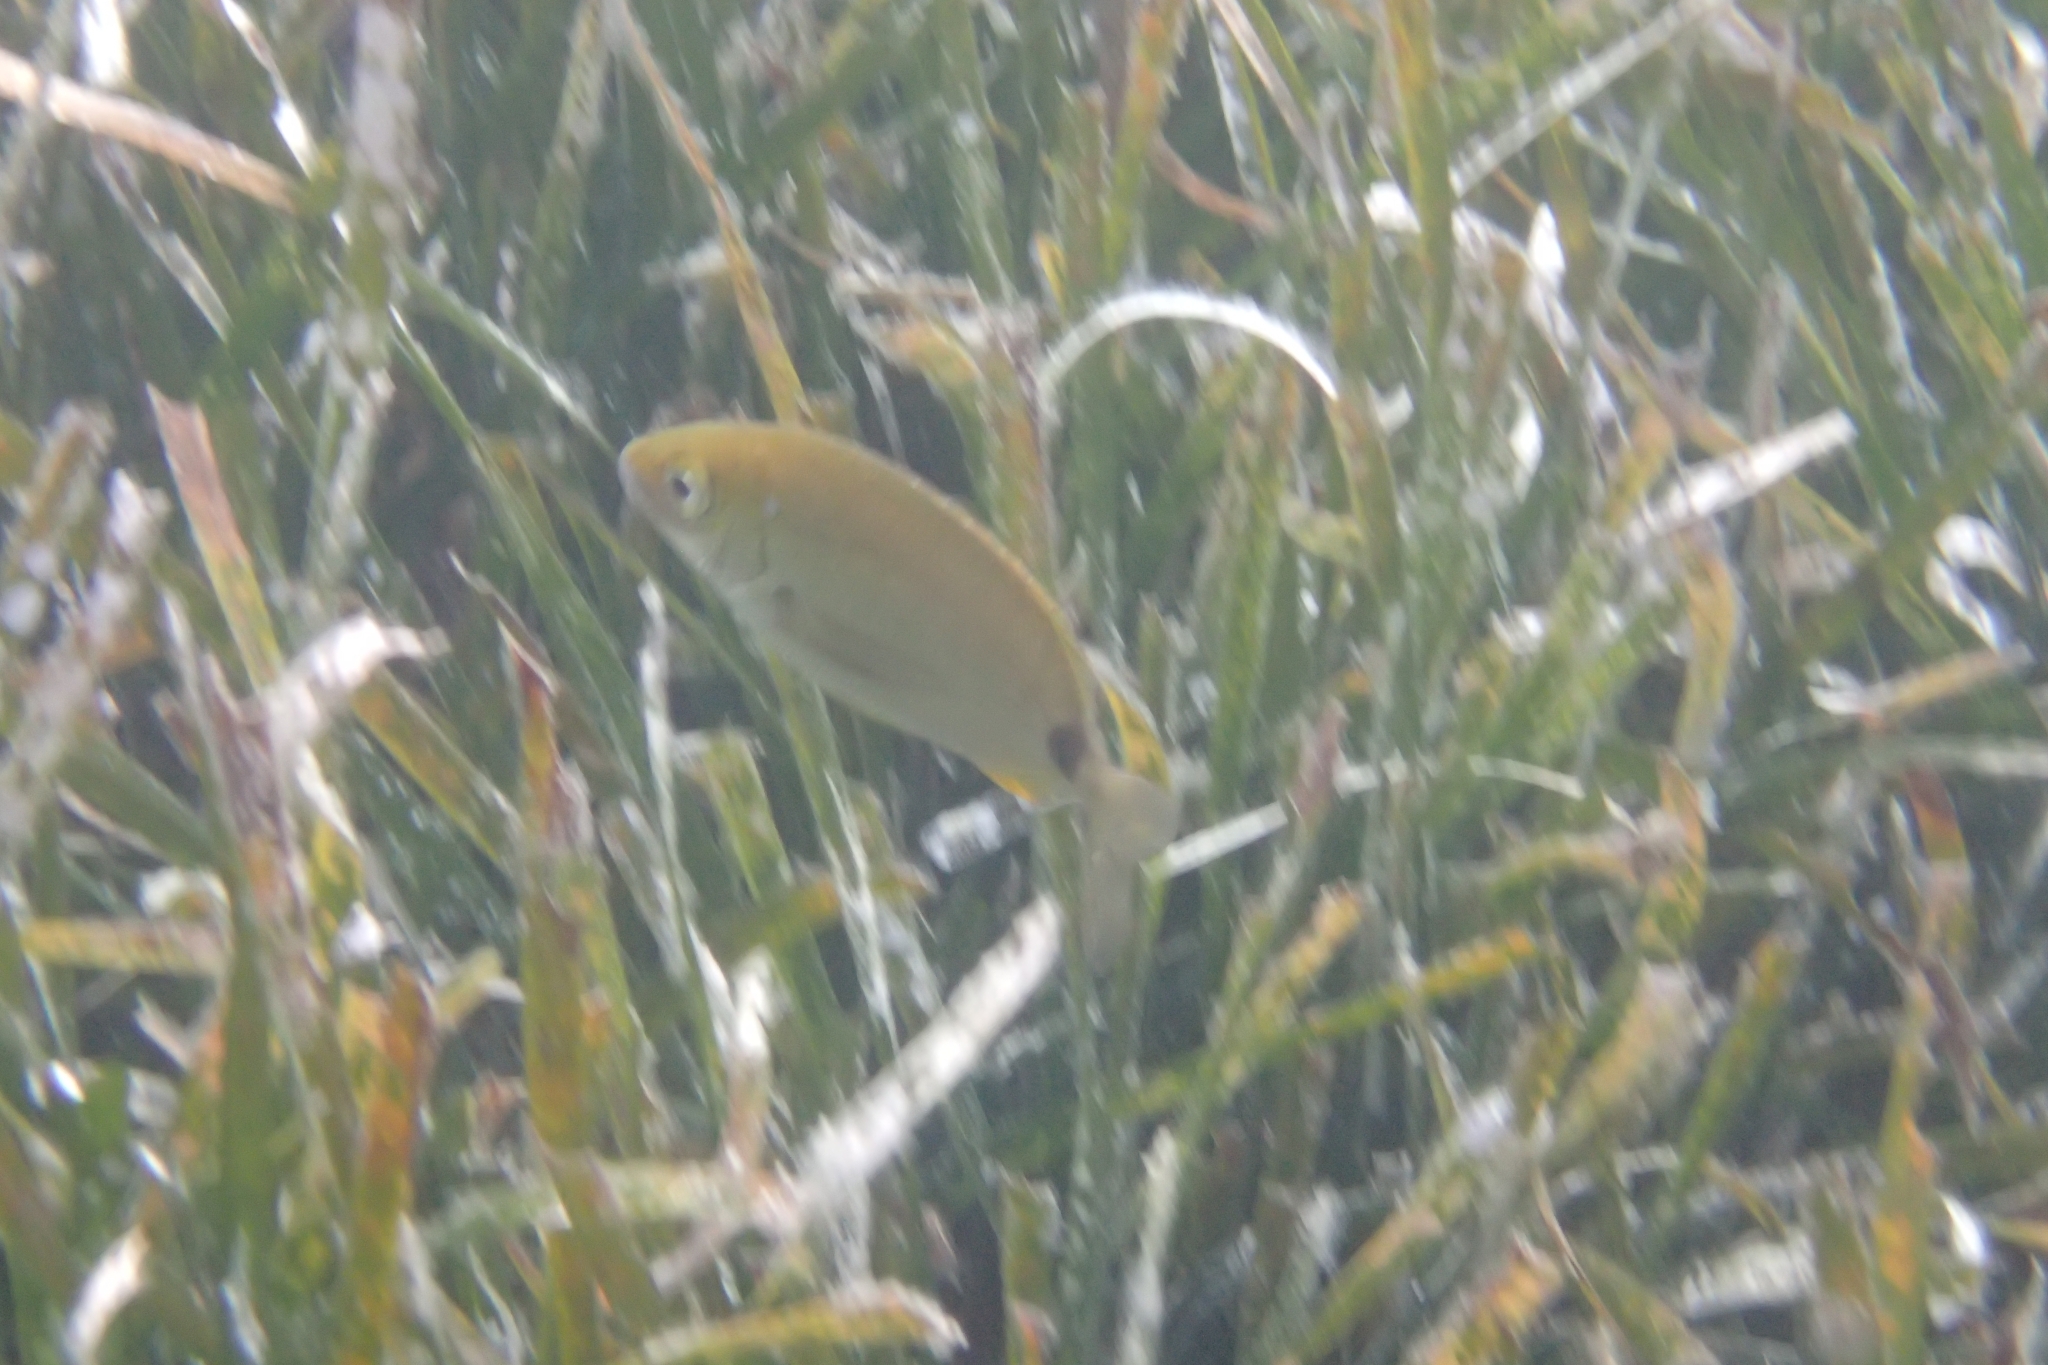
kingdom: Animalia
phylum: Chordata
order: Perciformes
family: Sparidae
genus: Diplodus
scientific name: Diplodus annularis
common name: Annular seabream
